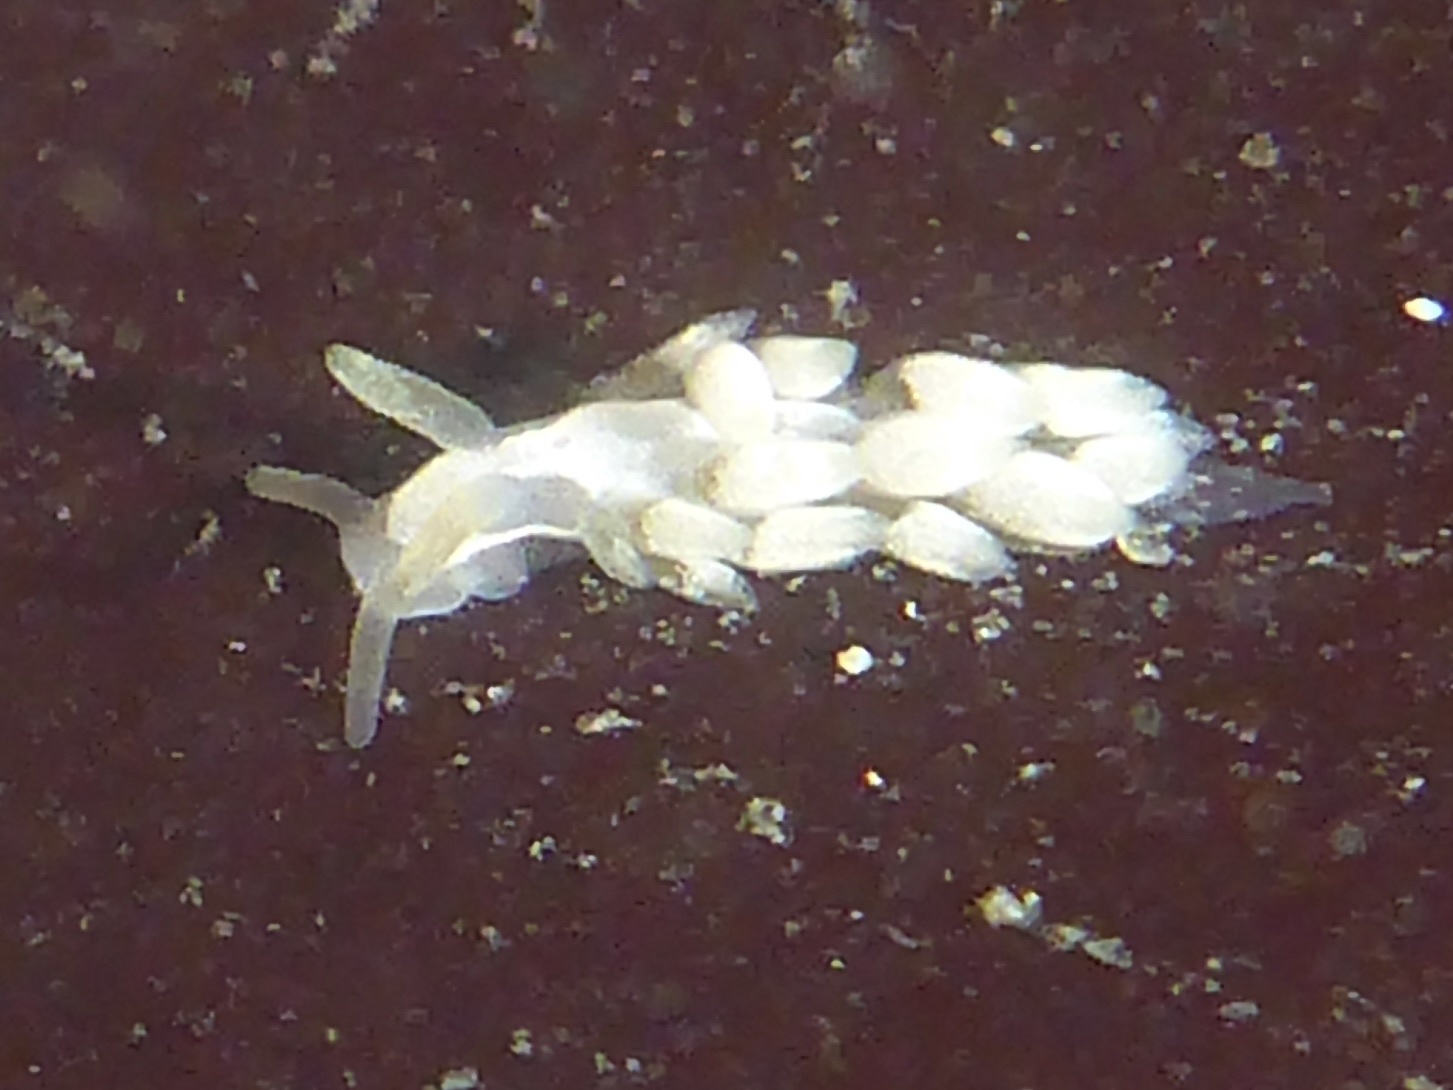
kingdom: Animalia
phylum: Mollusca
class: Gastropoda
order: Nudibranchia
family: Trinchesiidae
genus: Trinchesia
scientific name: Trinchesia albocrusta
